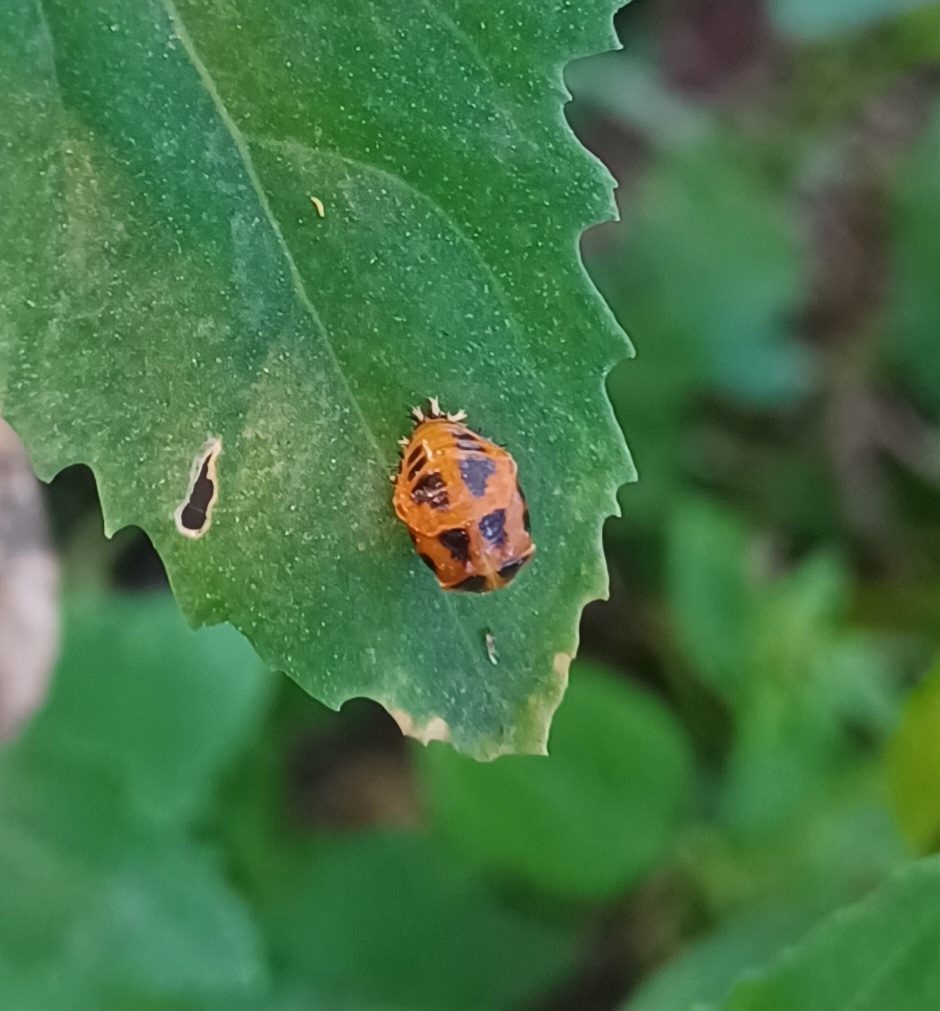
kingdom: Animalia
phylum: Arthropoda
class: Insecta
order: Coleoptera
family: Coccinellidae
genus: Harmonia
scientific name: Harmonia axyridis
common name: Harlequin ladybird
